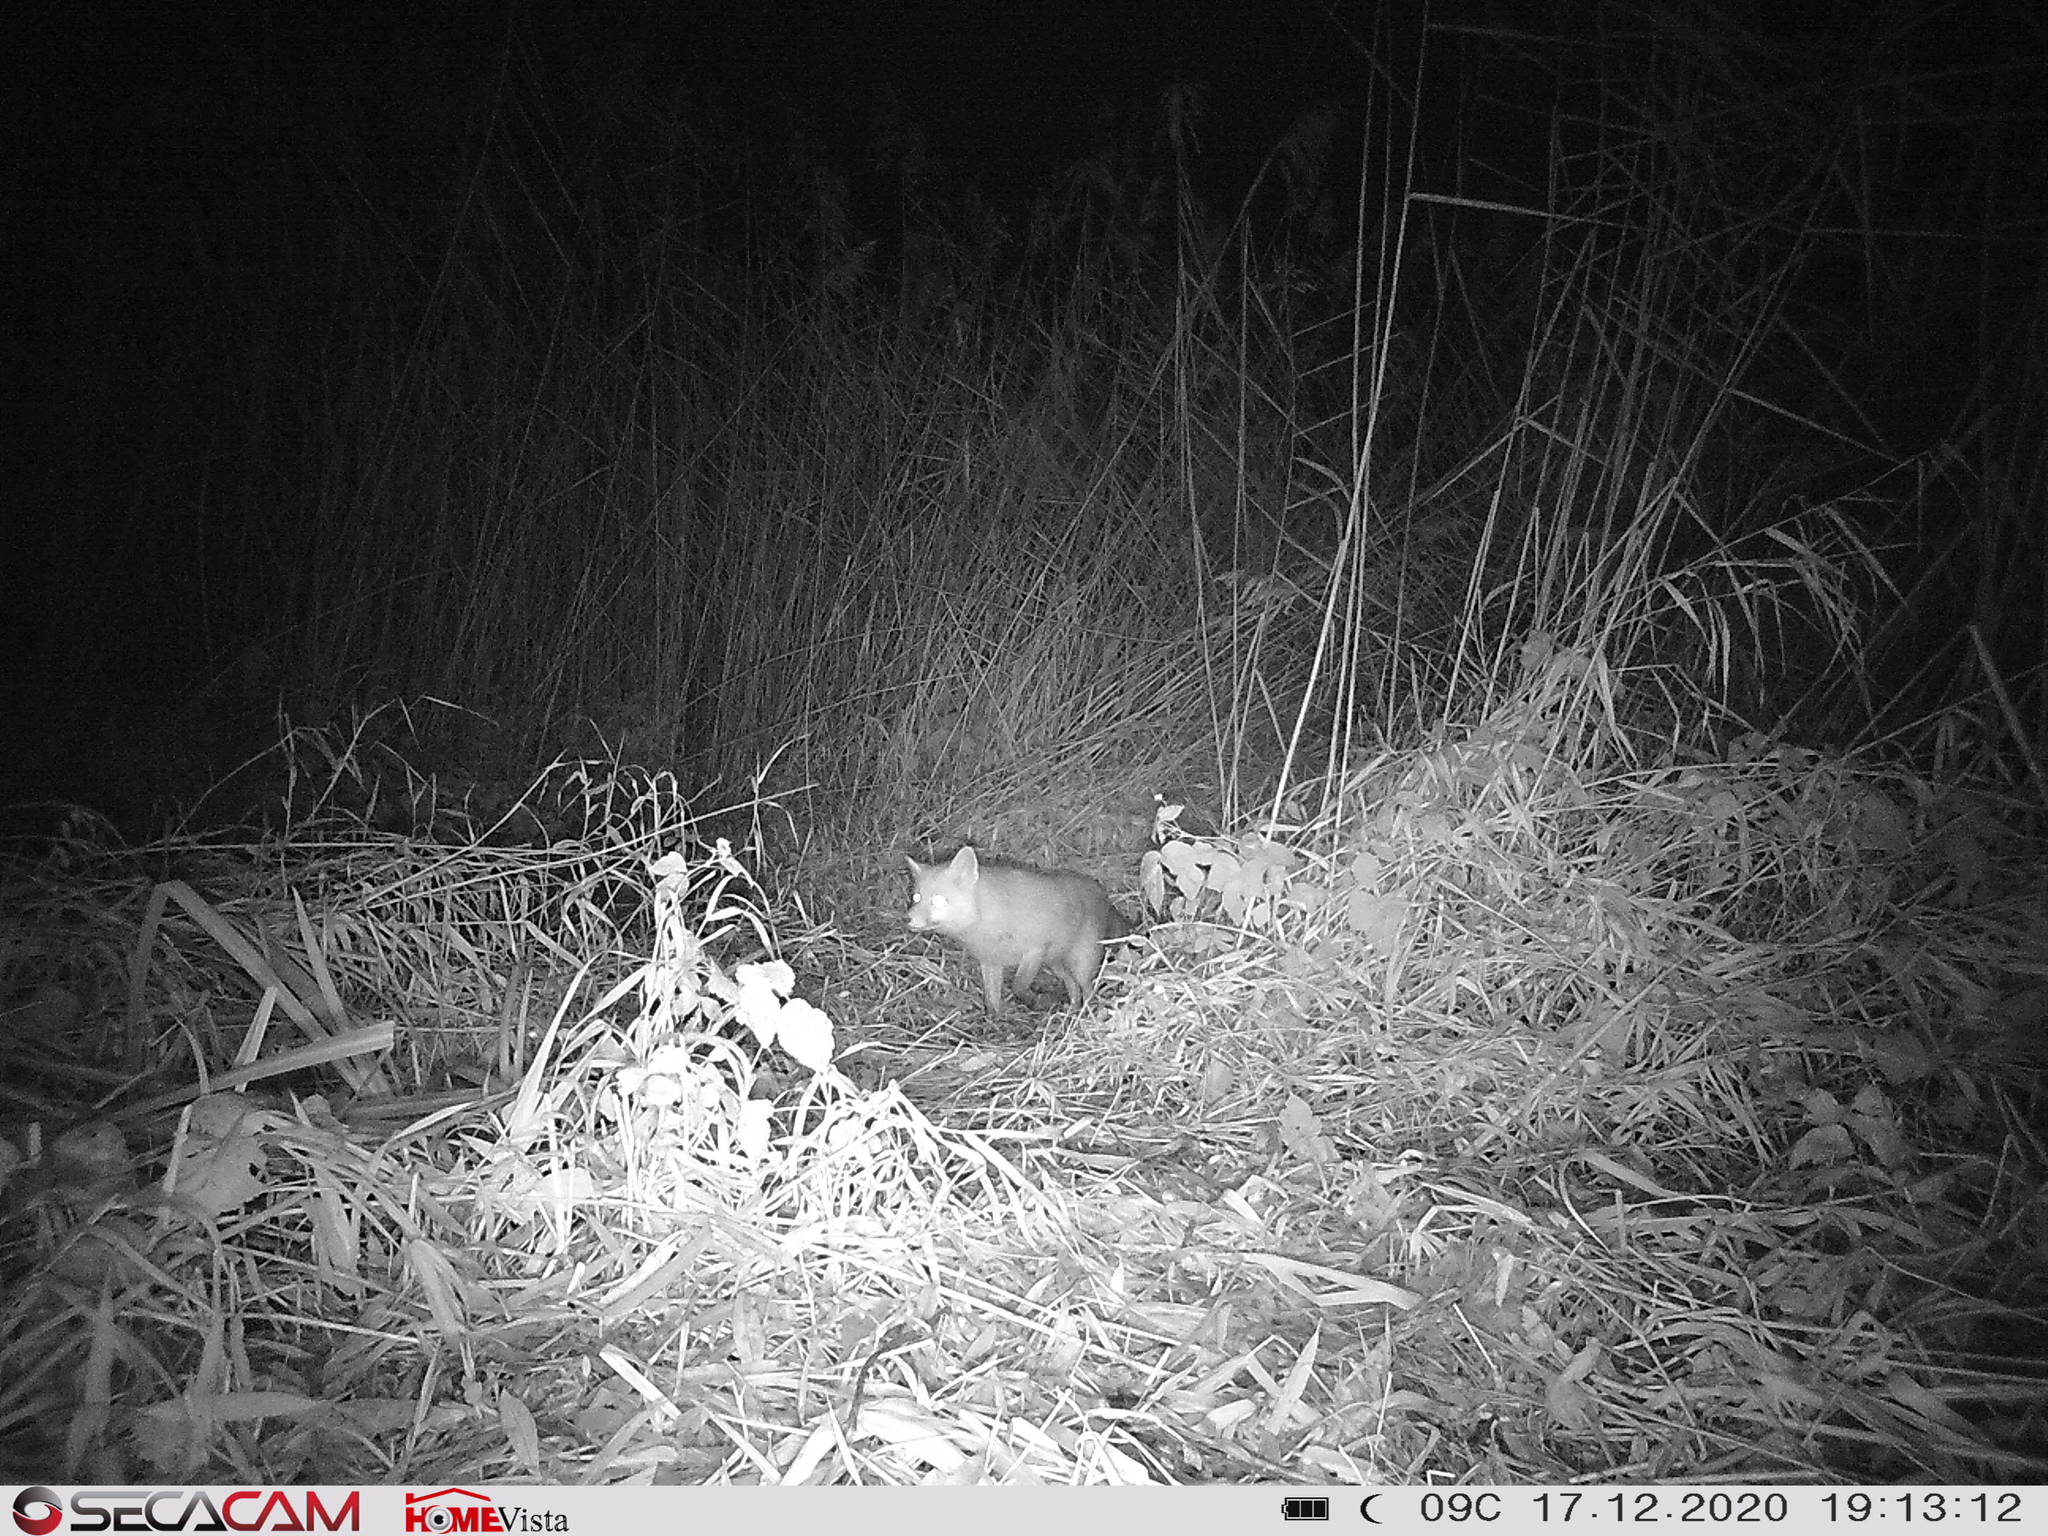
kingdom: Animalia
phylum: Chordata
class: Mammalia
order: Carnivora
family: Canidae
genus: Vulpes
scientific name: Vulpes vulpes
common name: Red fox
